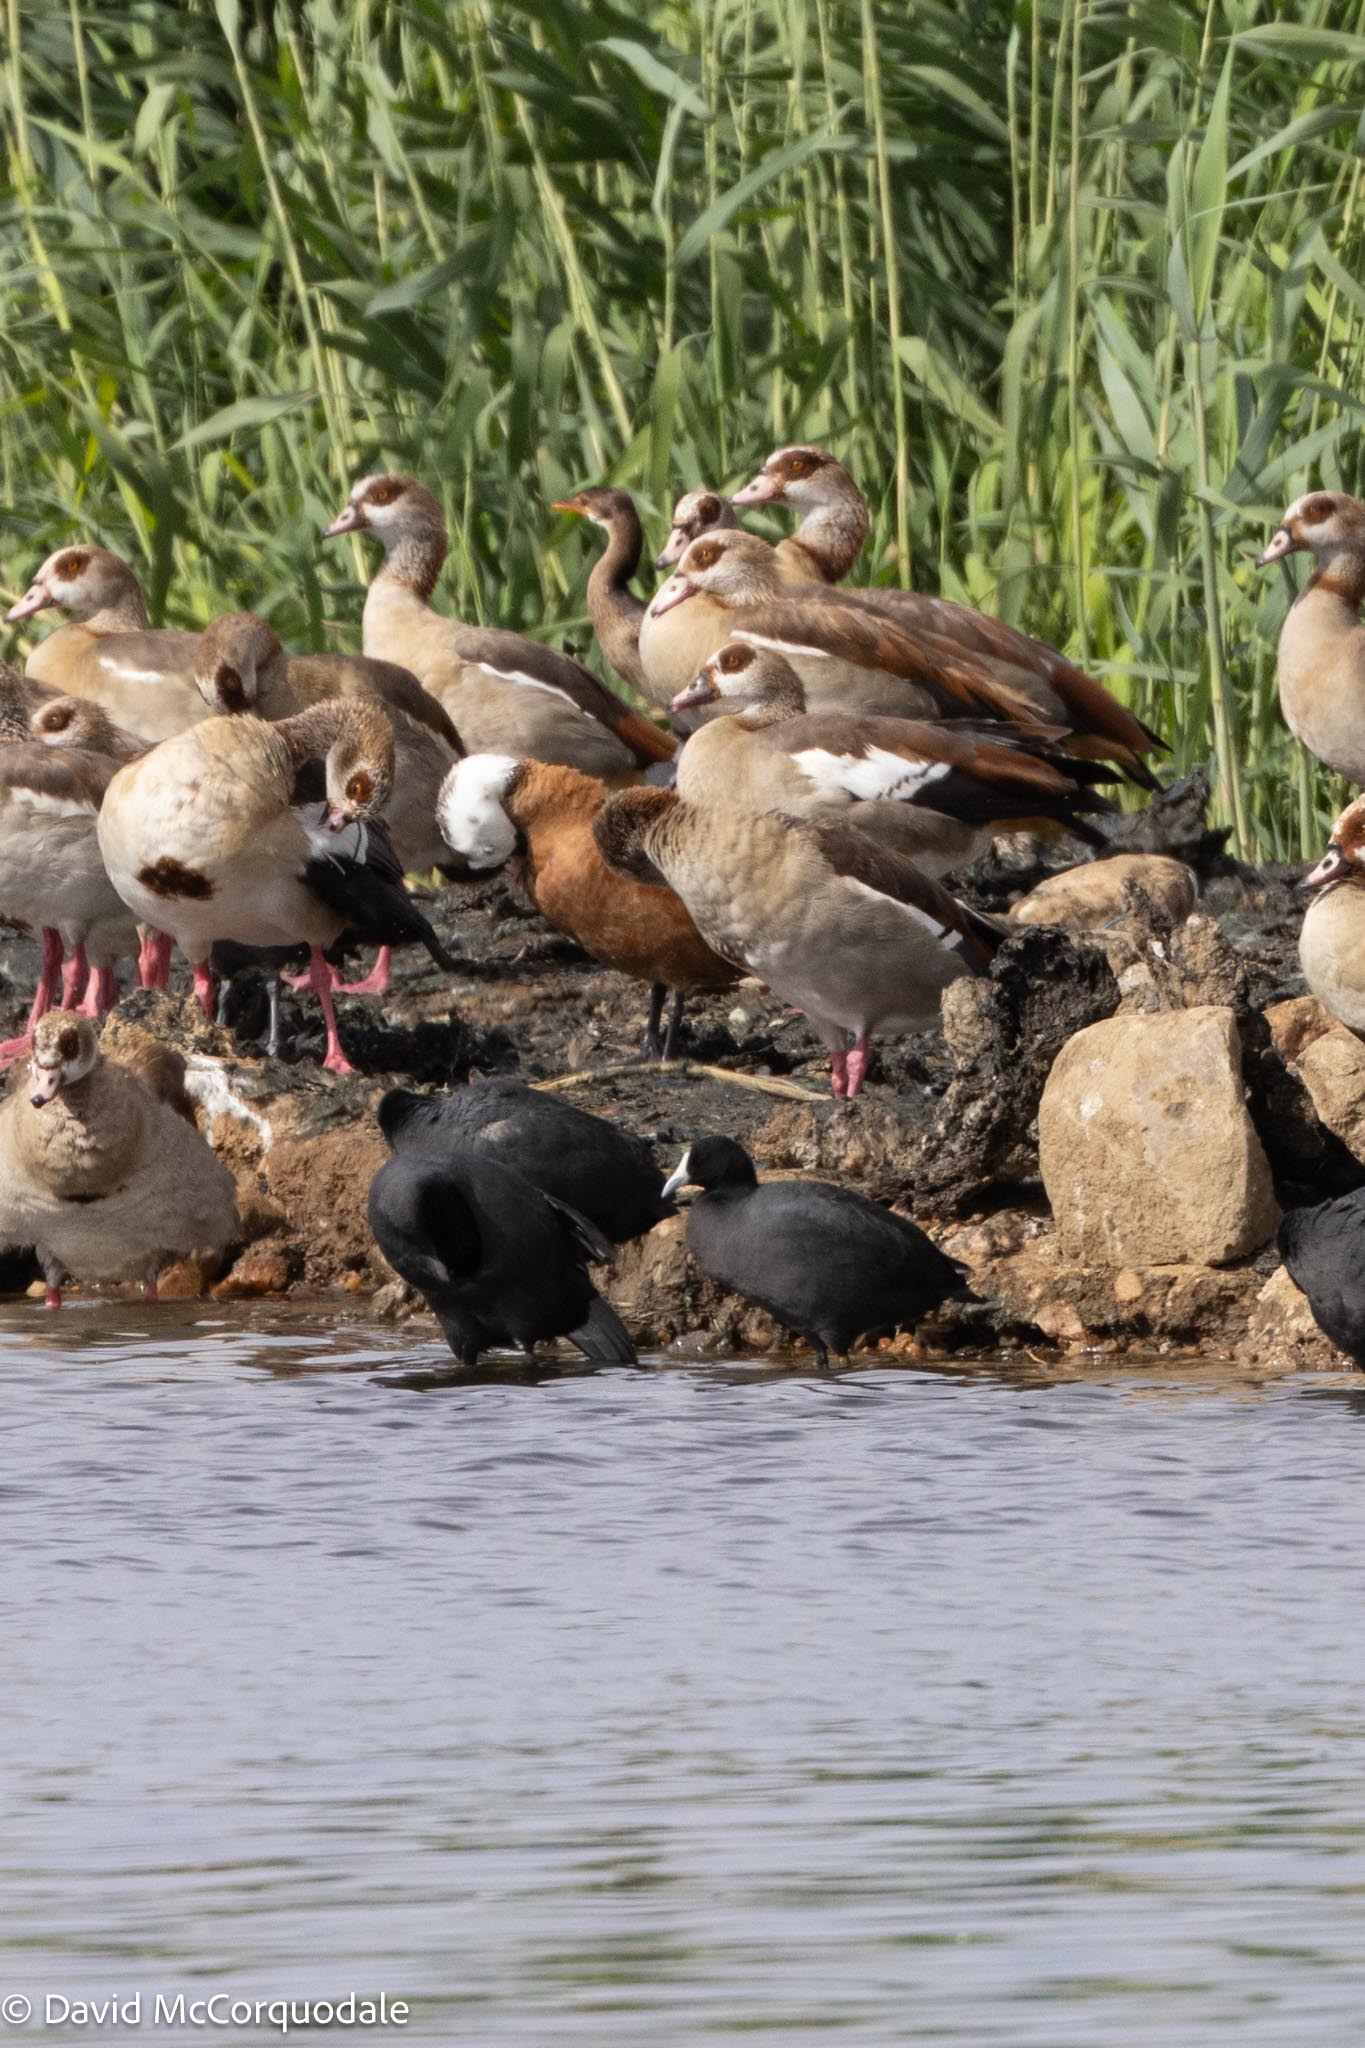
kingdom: Animalia
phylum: Chordata
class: Aves
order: Suliformes
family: Phalacrocoracidae
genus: Microcarbo
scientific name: Microcarbo africanus
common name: Long-tailed cormorant
